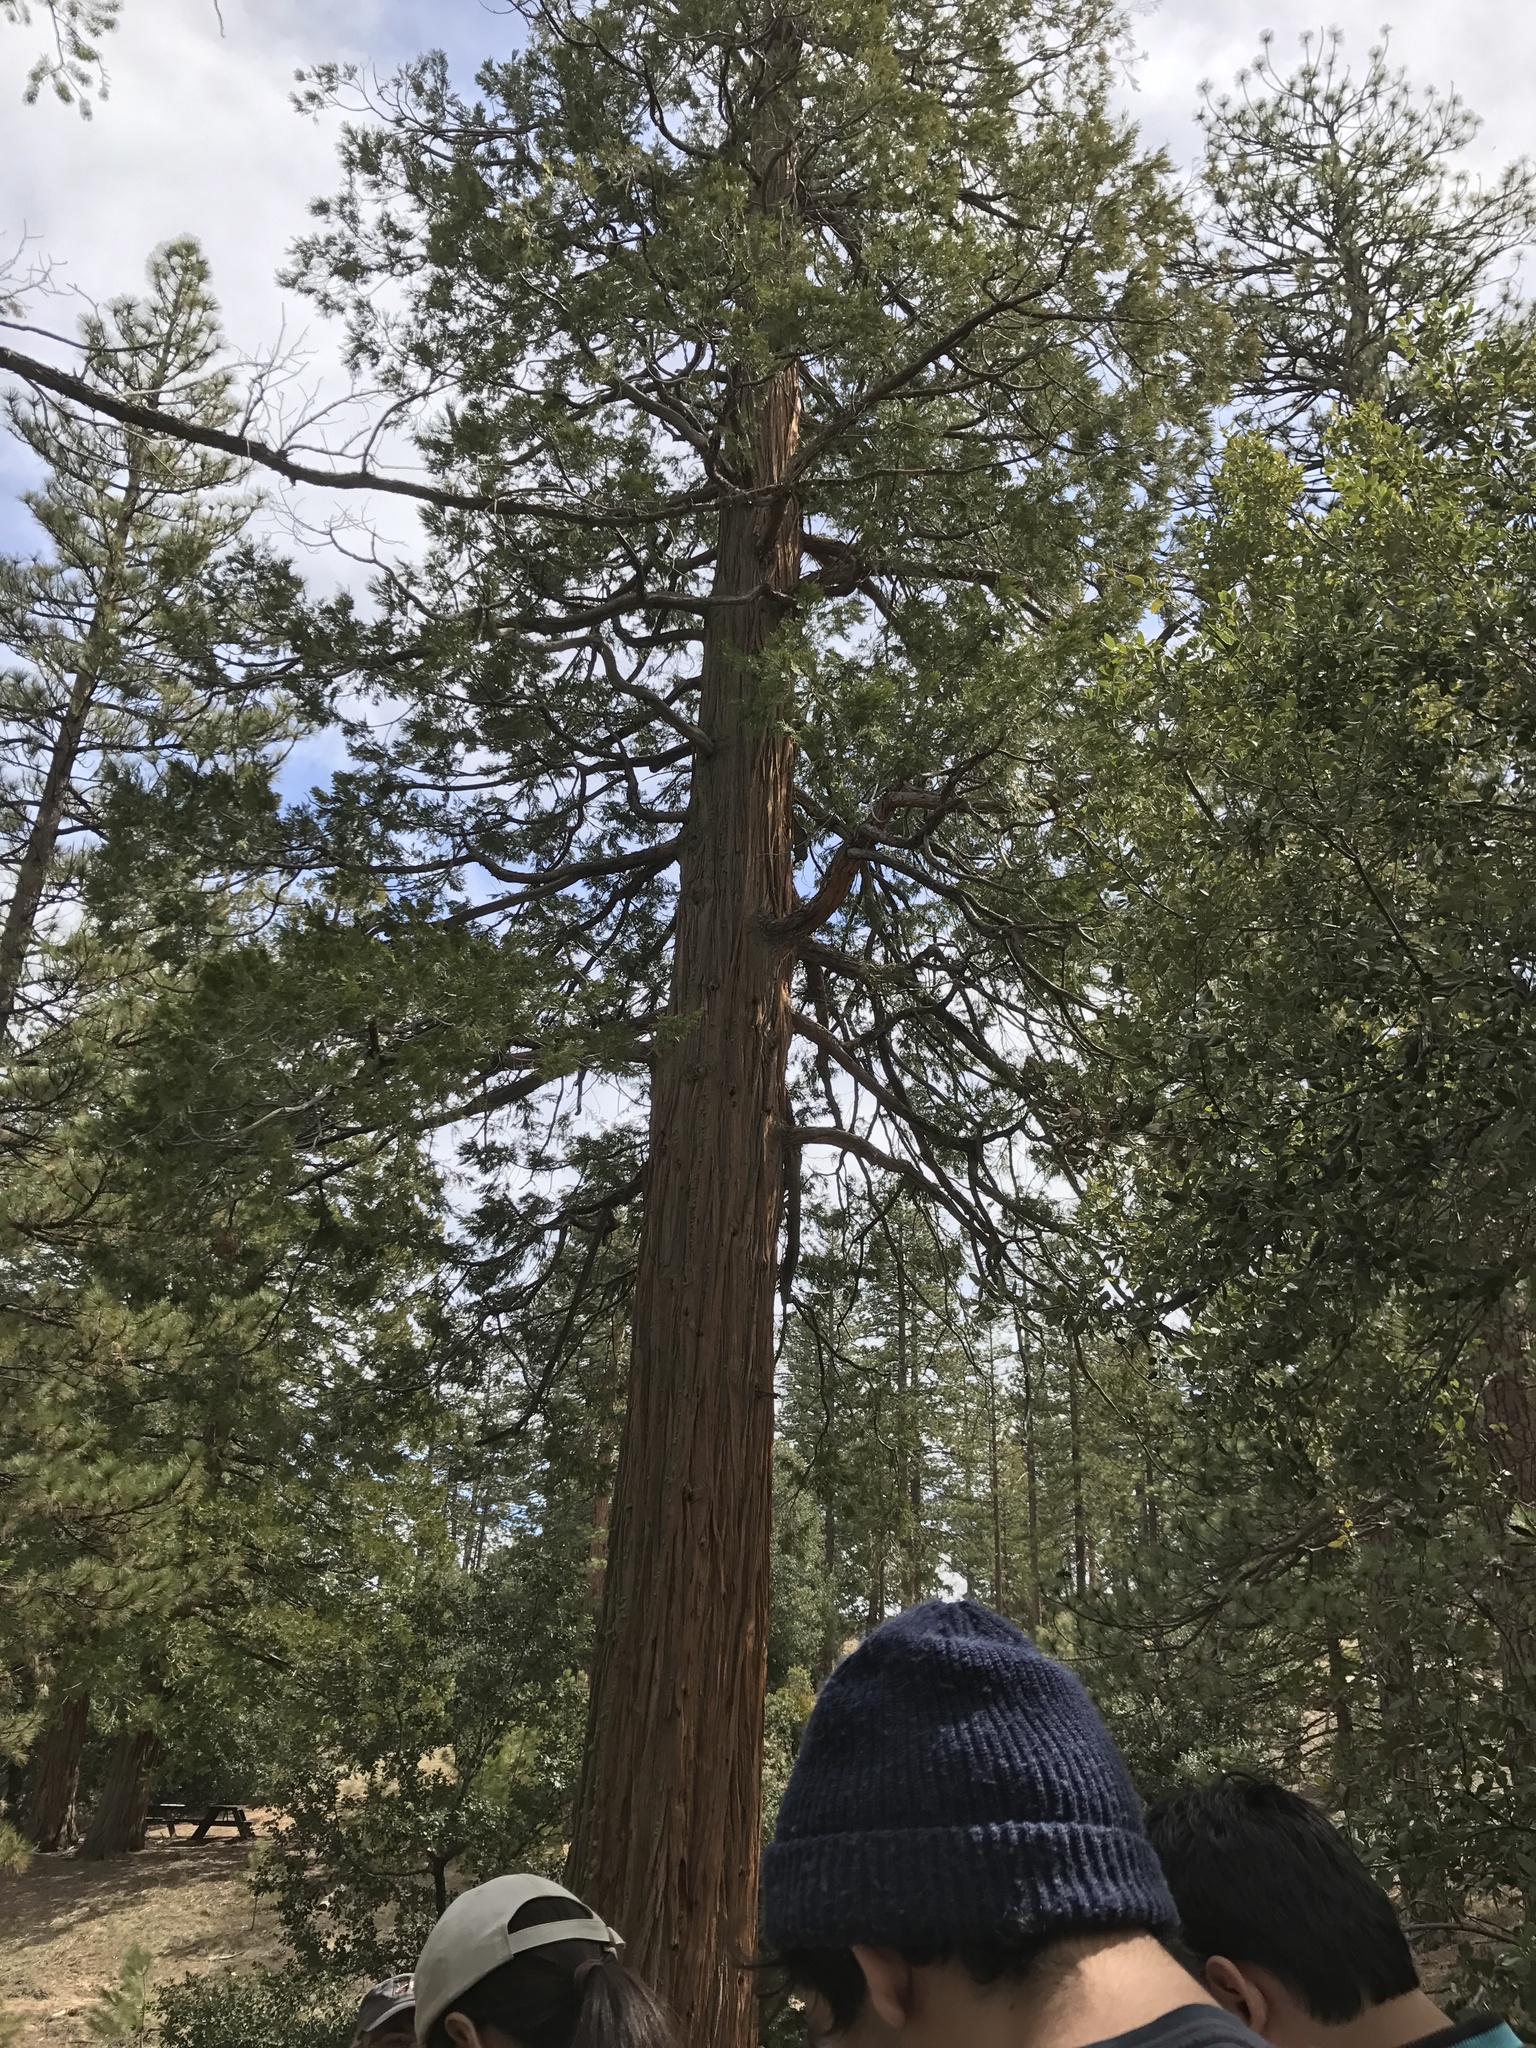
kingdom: Plantae
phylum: Tracheophyta
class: Pinopsida
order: Pinales
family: Cupressaceae
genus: Calocedrus
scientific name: Calocedrus decurrens
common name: Californian incense-cedar
